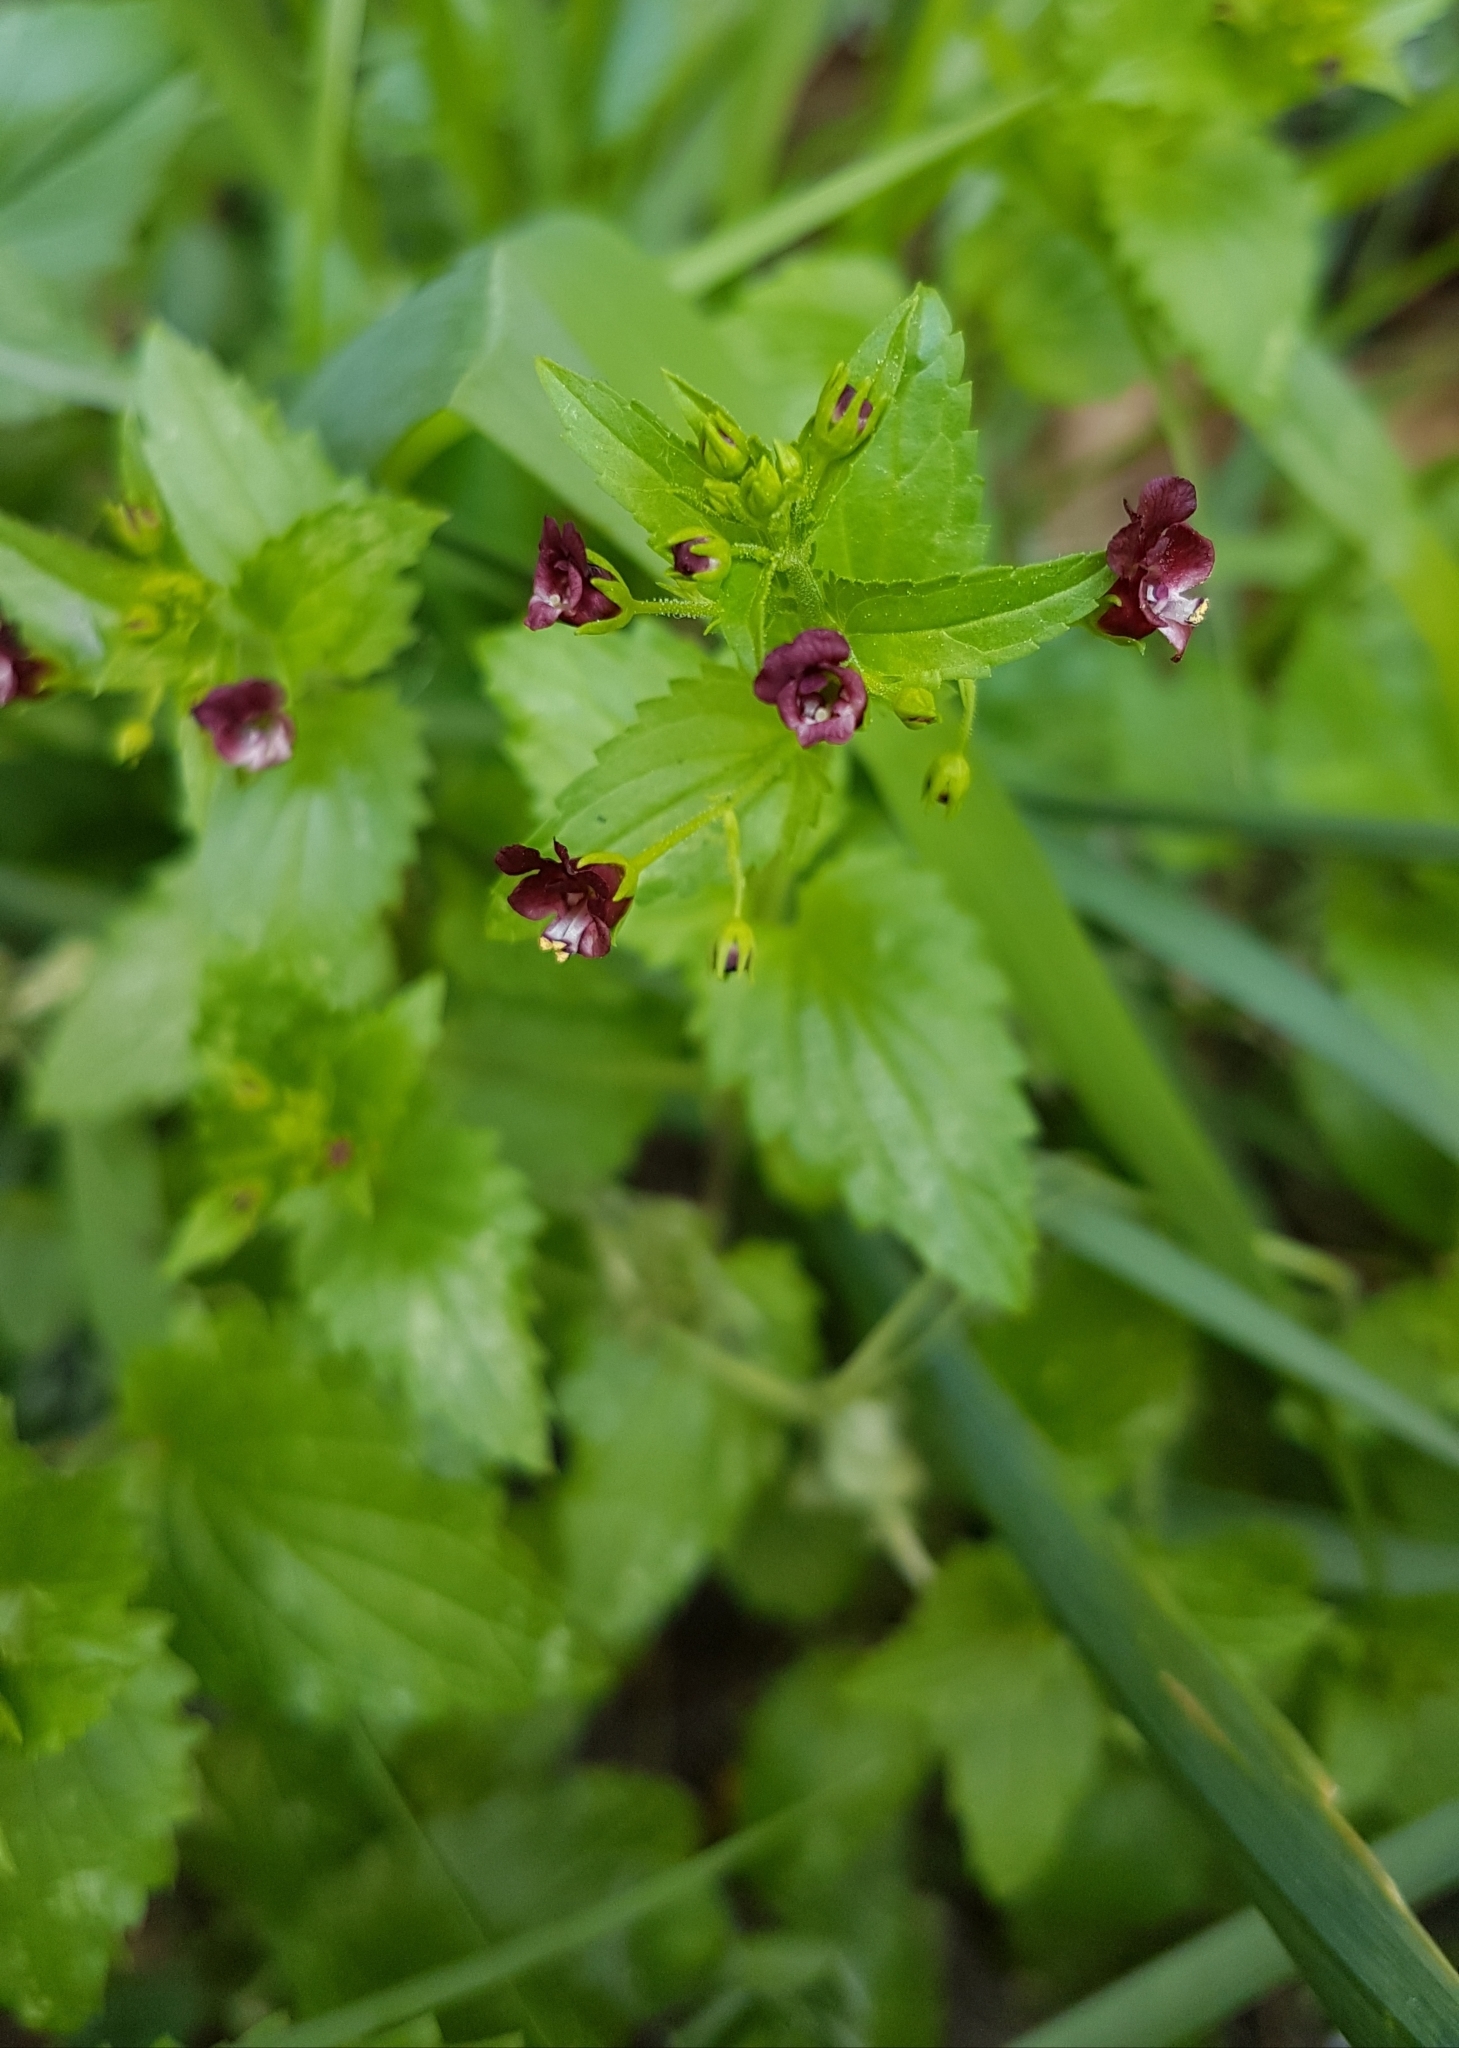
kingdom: Plantae
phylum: Tracheophyta
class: Magnoliopsida
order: Lamiales
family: Scrophulariaceae
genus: Scrophularia
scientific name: Scrophularia peregrina
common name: Mediterranean figwort
